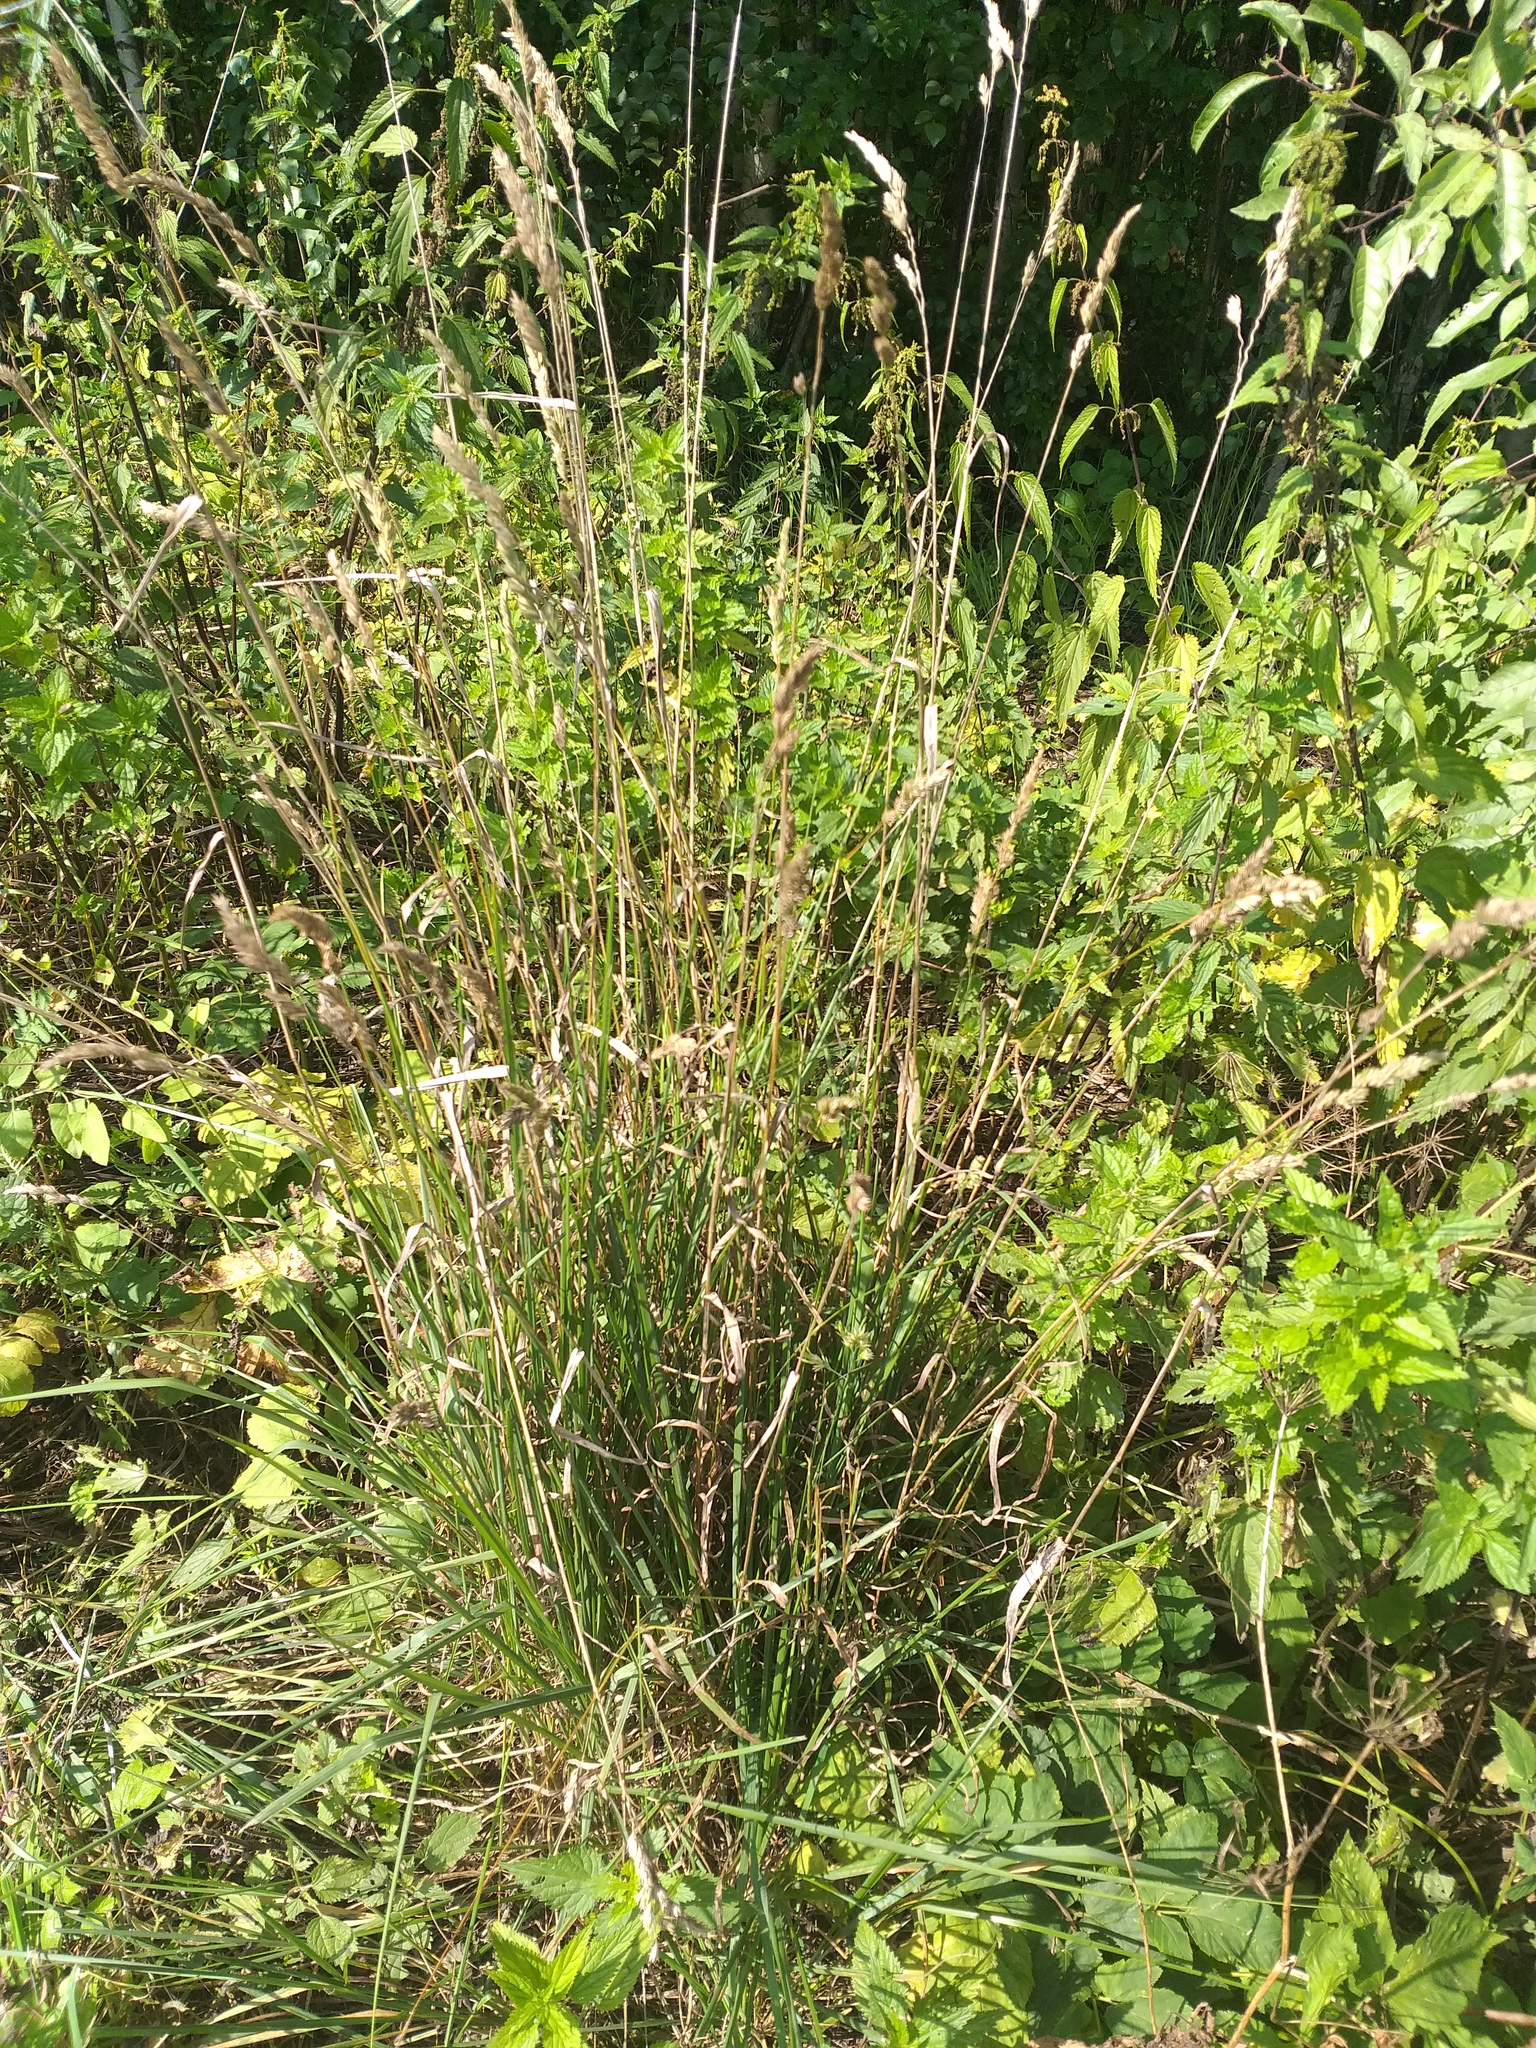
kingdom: Plantae
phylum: Tracheophyta
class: Liliopsida
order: Poales
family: Poaceae
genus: Dactylis
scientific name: Dactylis glomerata
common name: Orchardgrass
